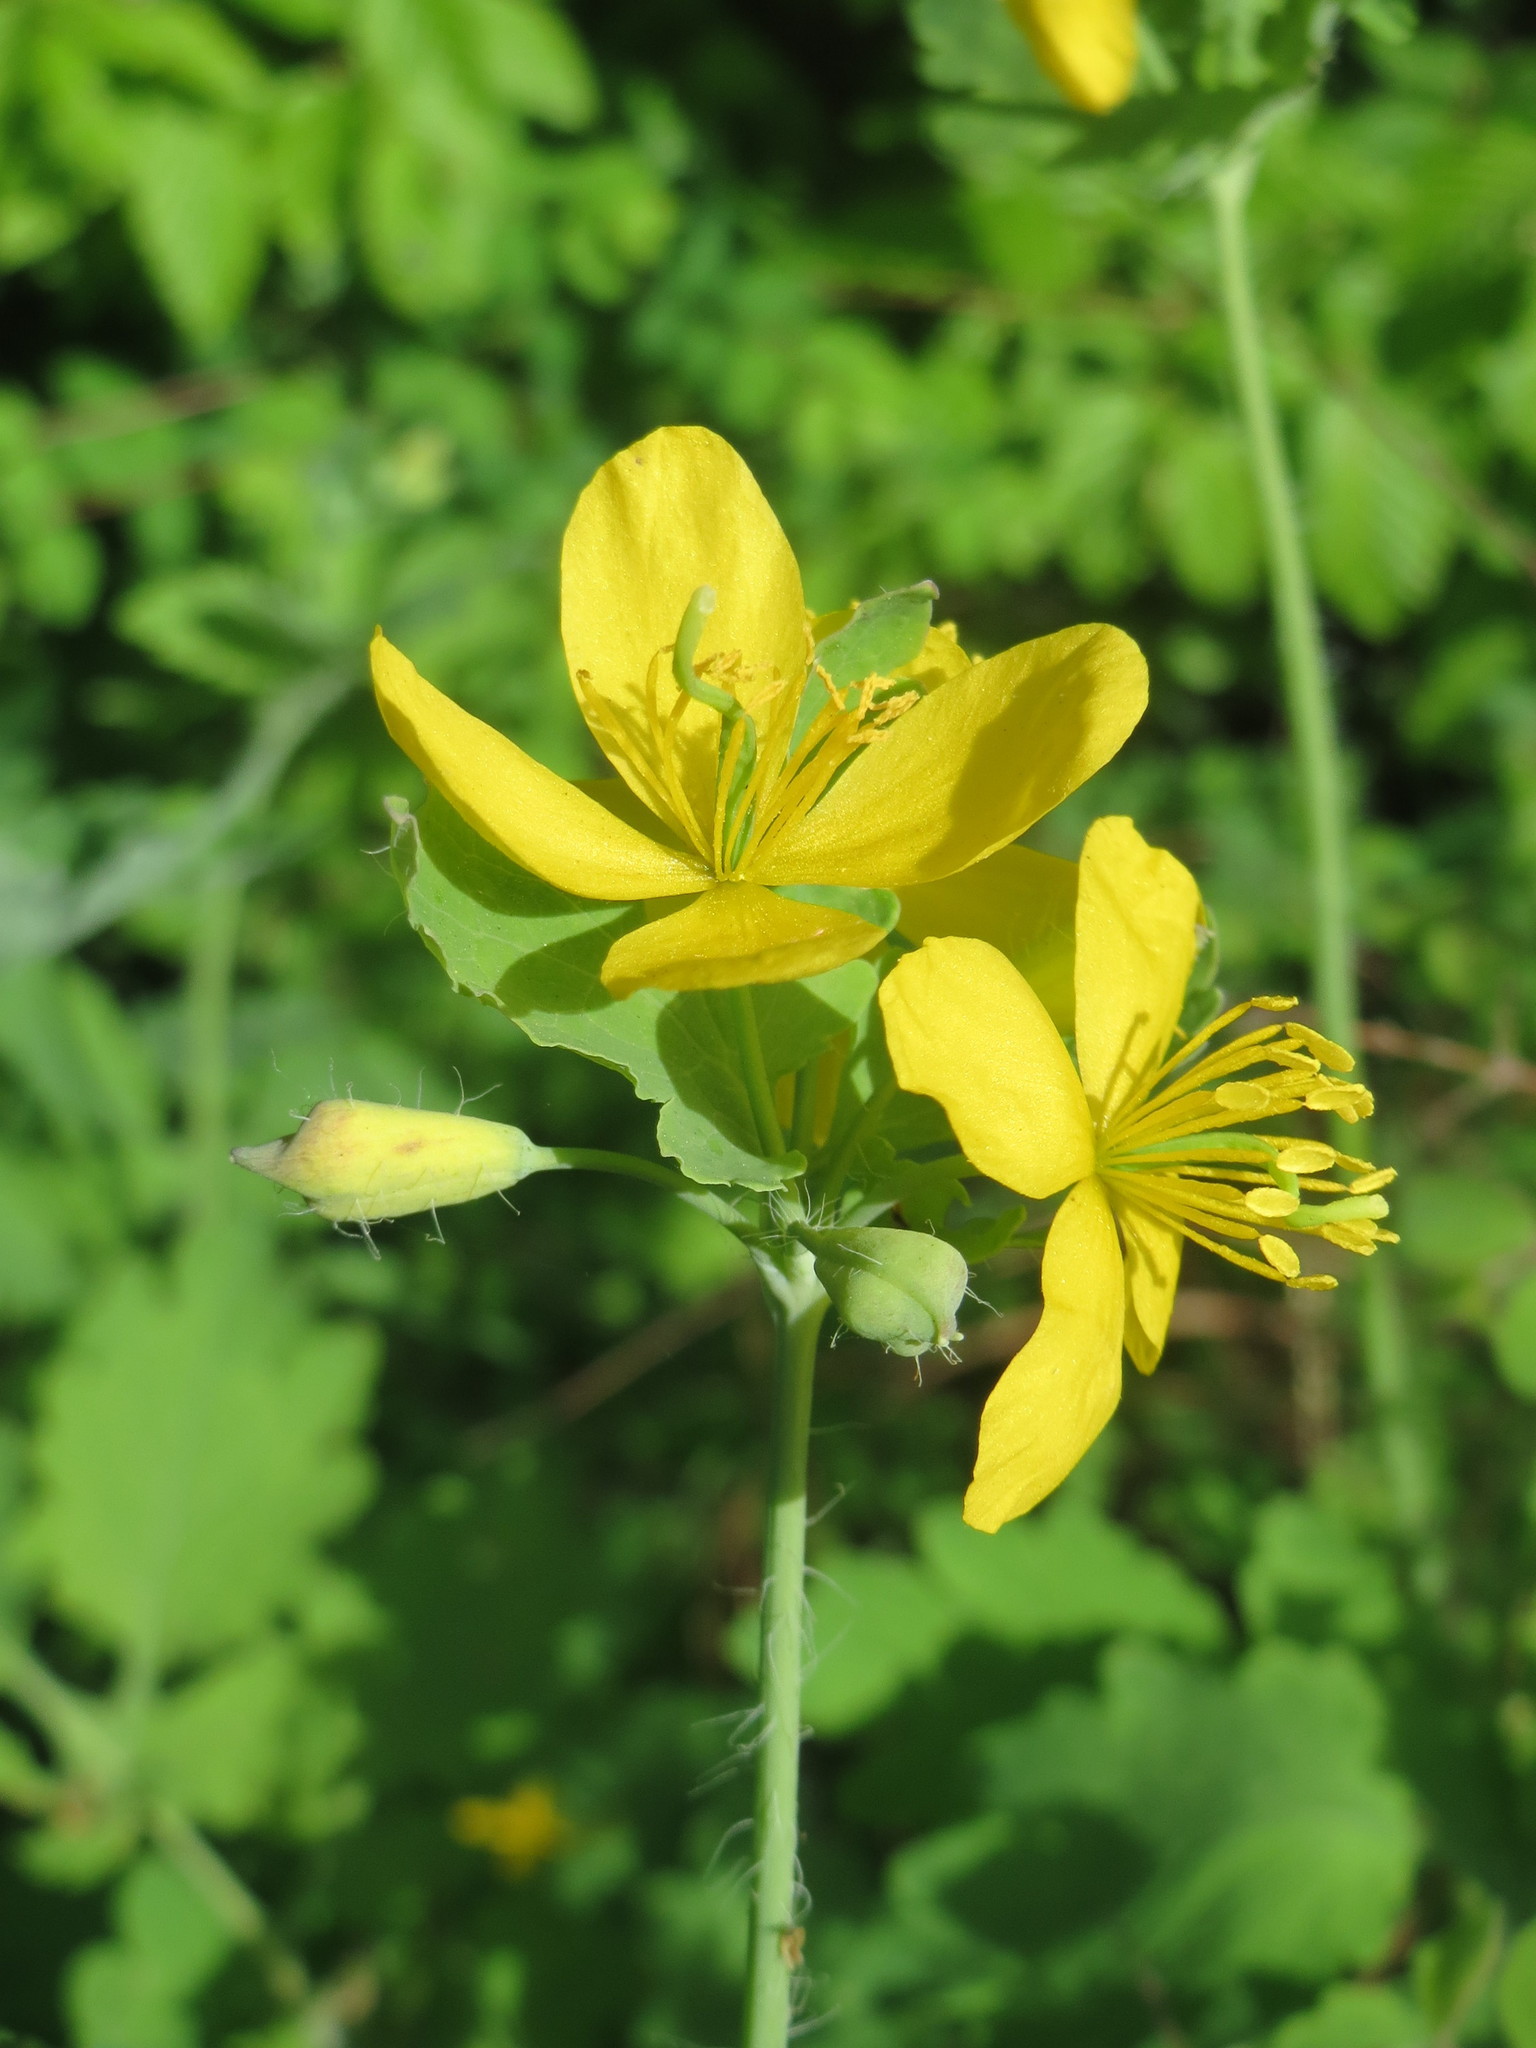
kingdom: Plantae
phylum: Tracheophyta
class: Magnoliopsida
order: Ranunculales
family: Papaveraceae
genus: Chelidonium
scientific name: Chelidonium majus
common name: Greater celandine
